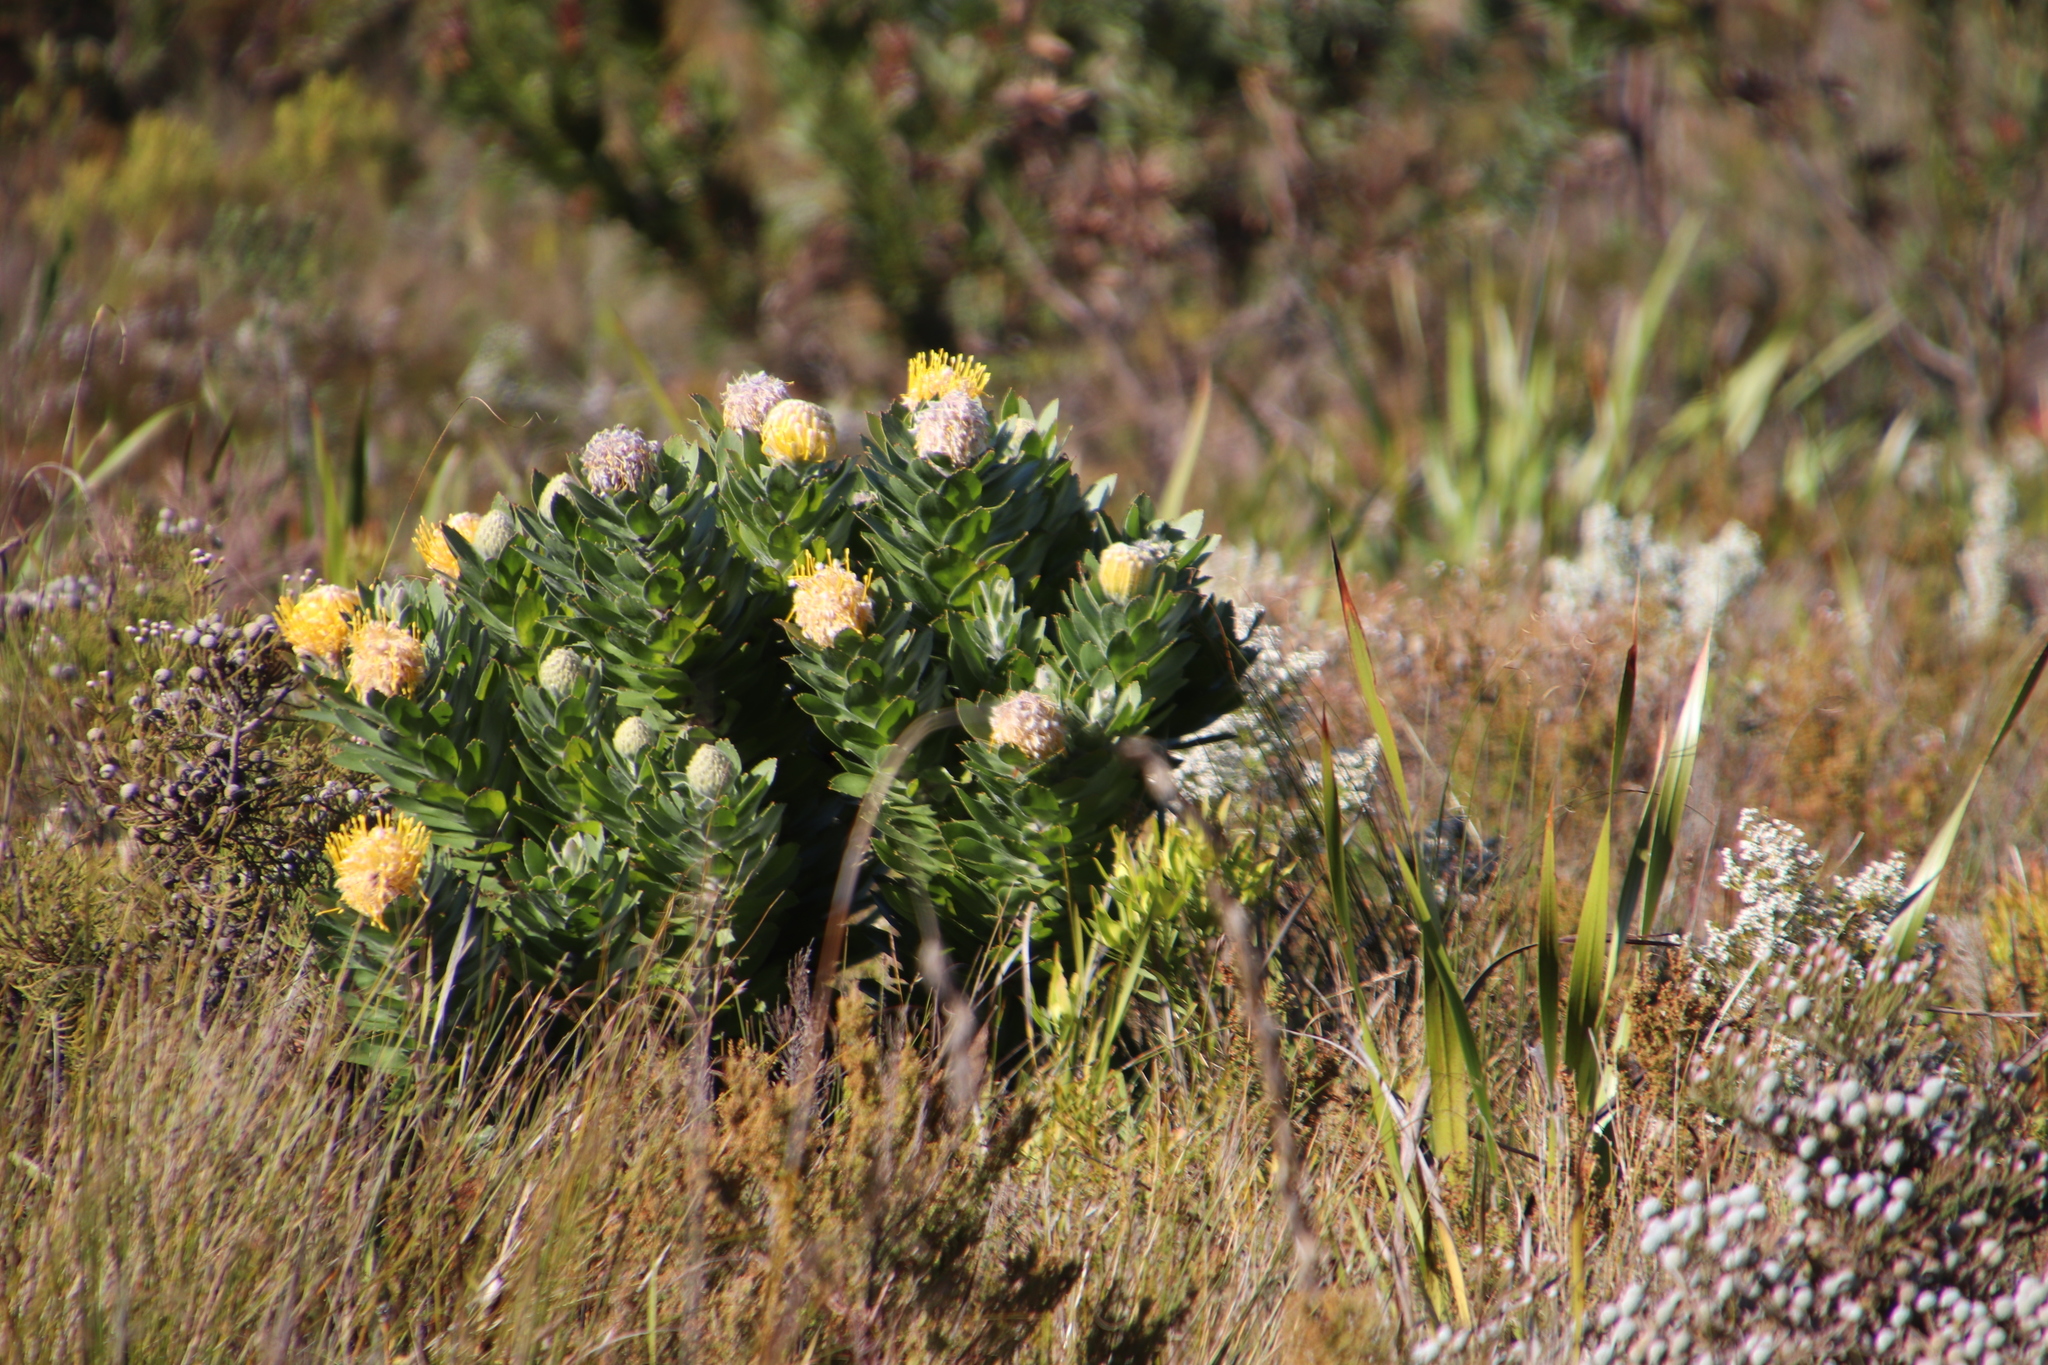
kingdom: Plantae
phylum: Tracheophyta
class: Magnoliopsida
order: Proteales
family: Proteaceae
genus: Leucospermum
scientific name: Leucospermum conocarpodendron
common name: Tree pincushion
